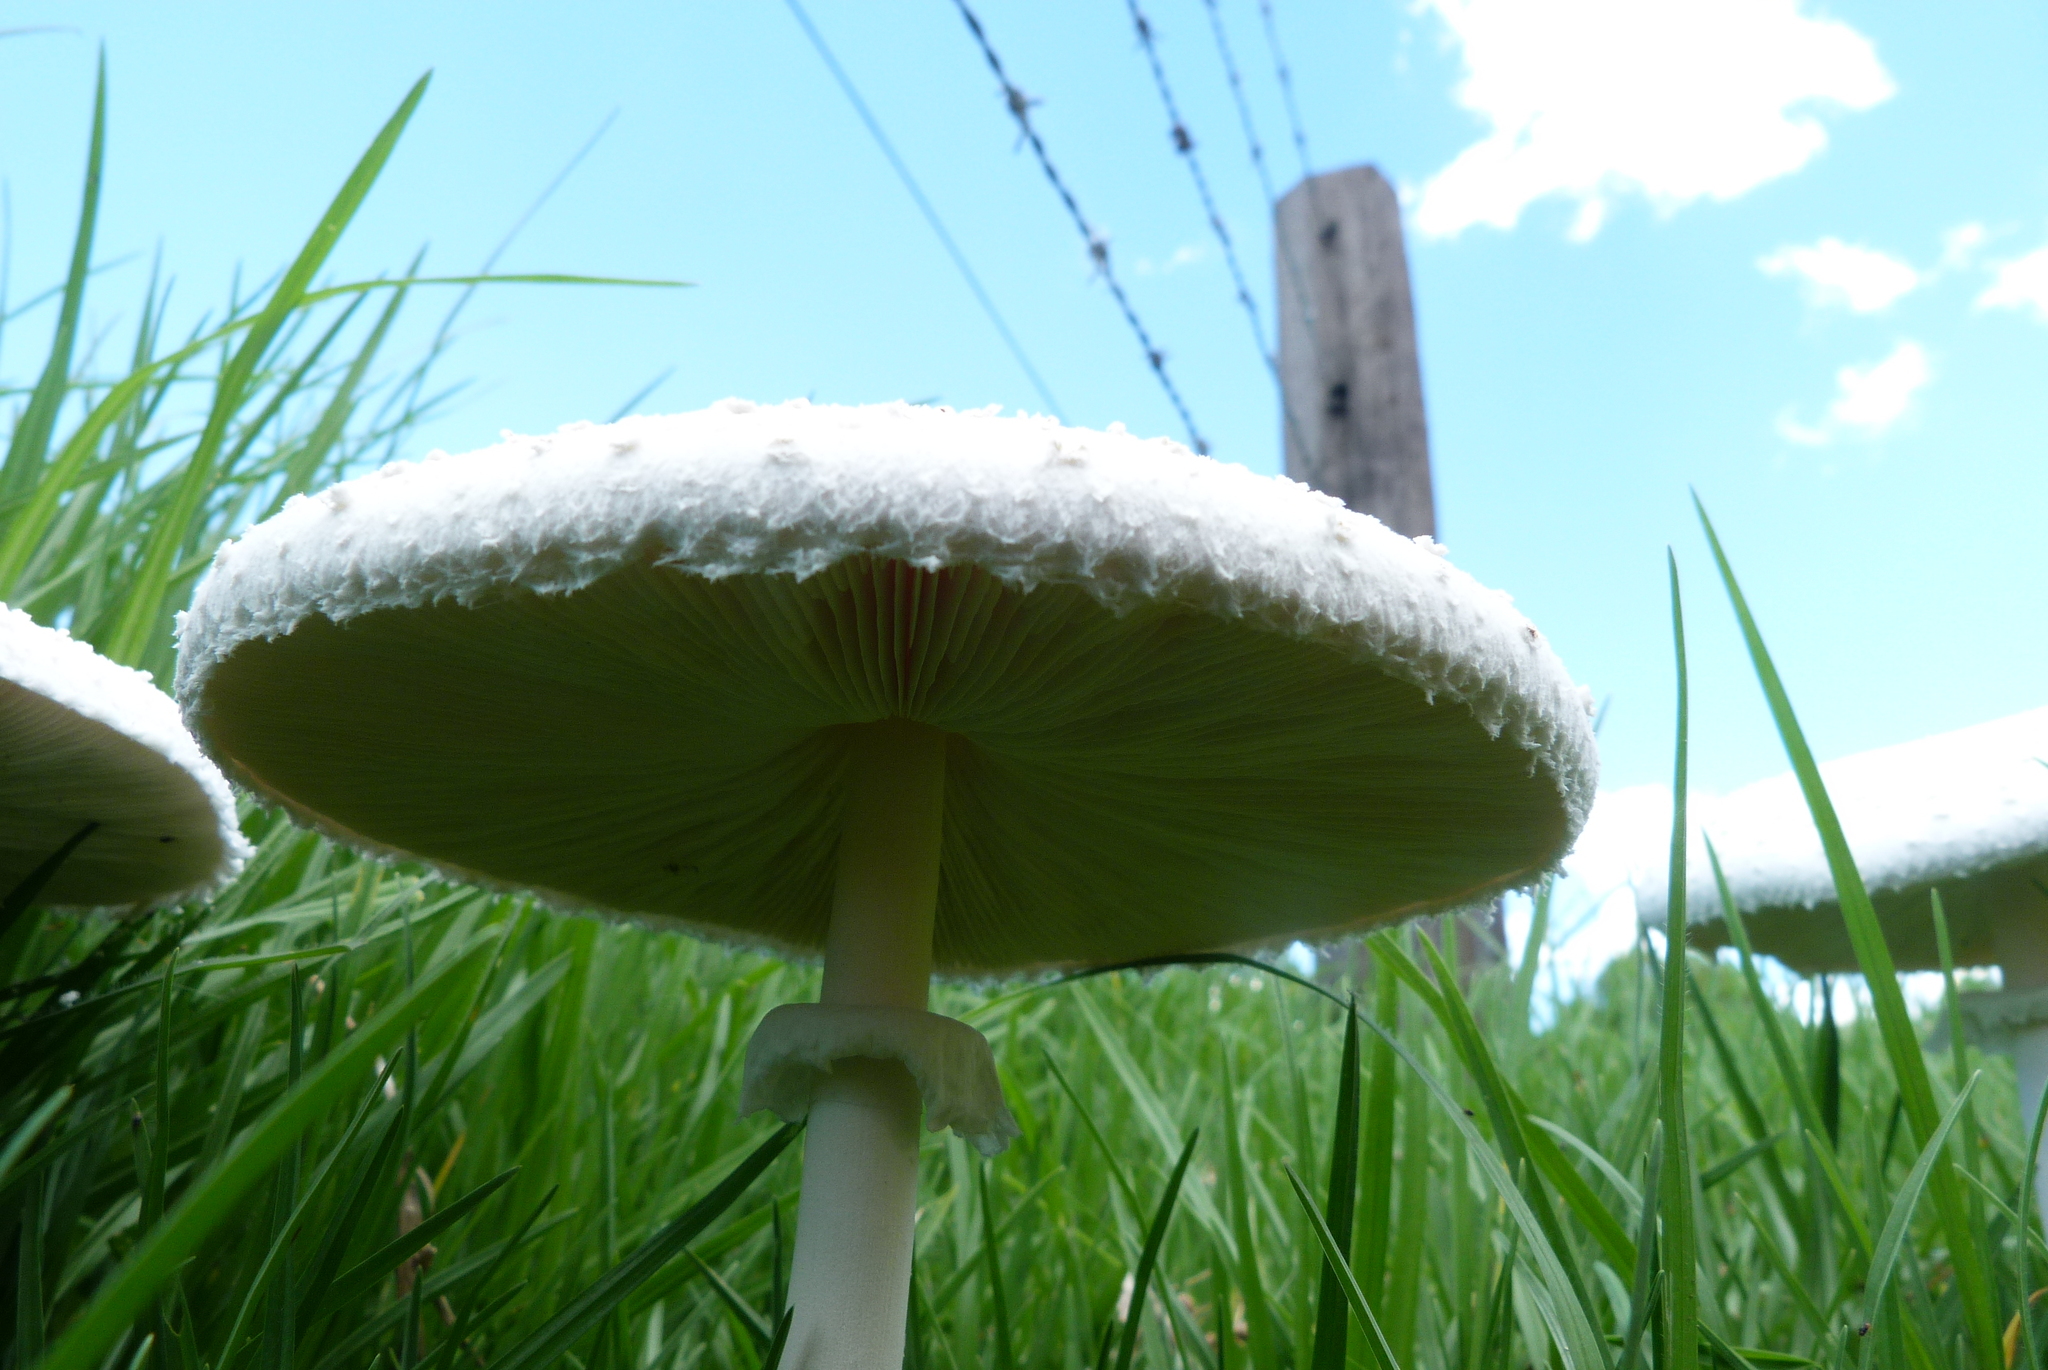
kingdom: Fungi
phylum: Basidiomycota
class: Agaricomycetes
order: Agaricales
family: Agaricaceae
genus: Macrolepiota
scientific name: Macrolepiota dolichaula
